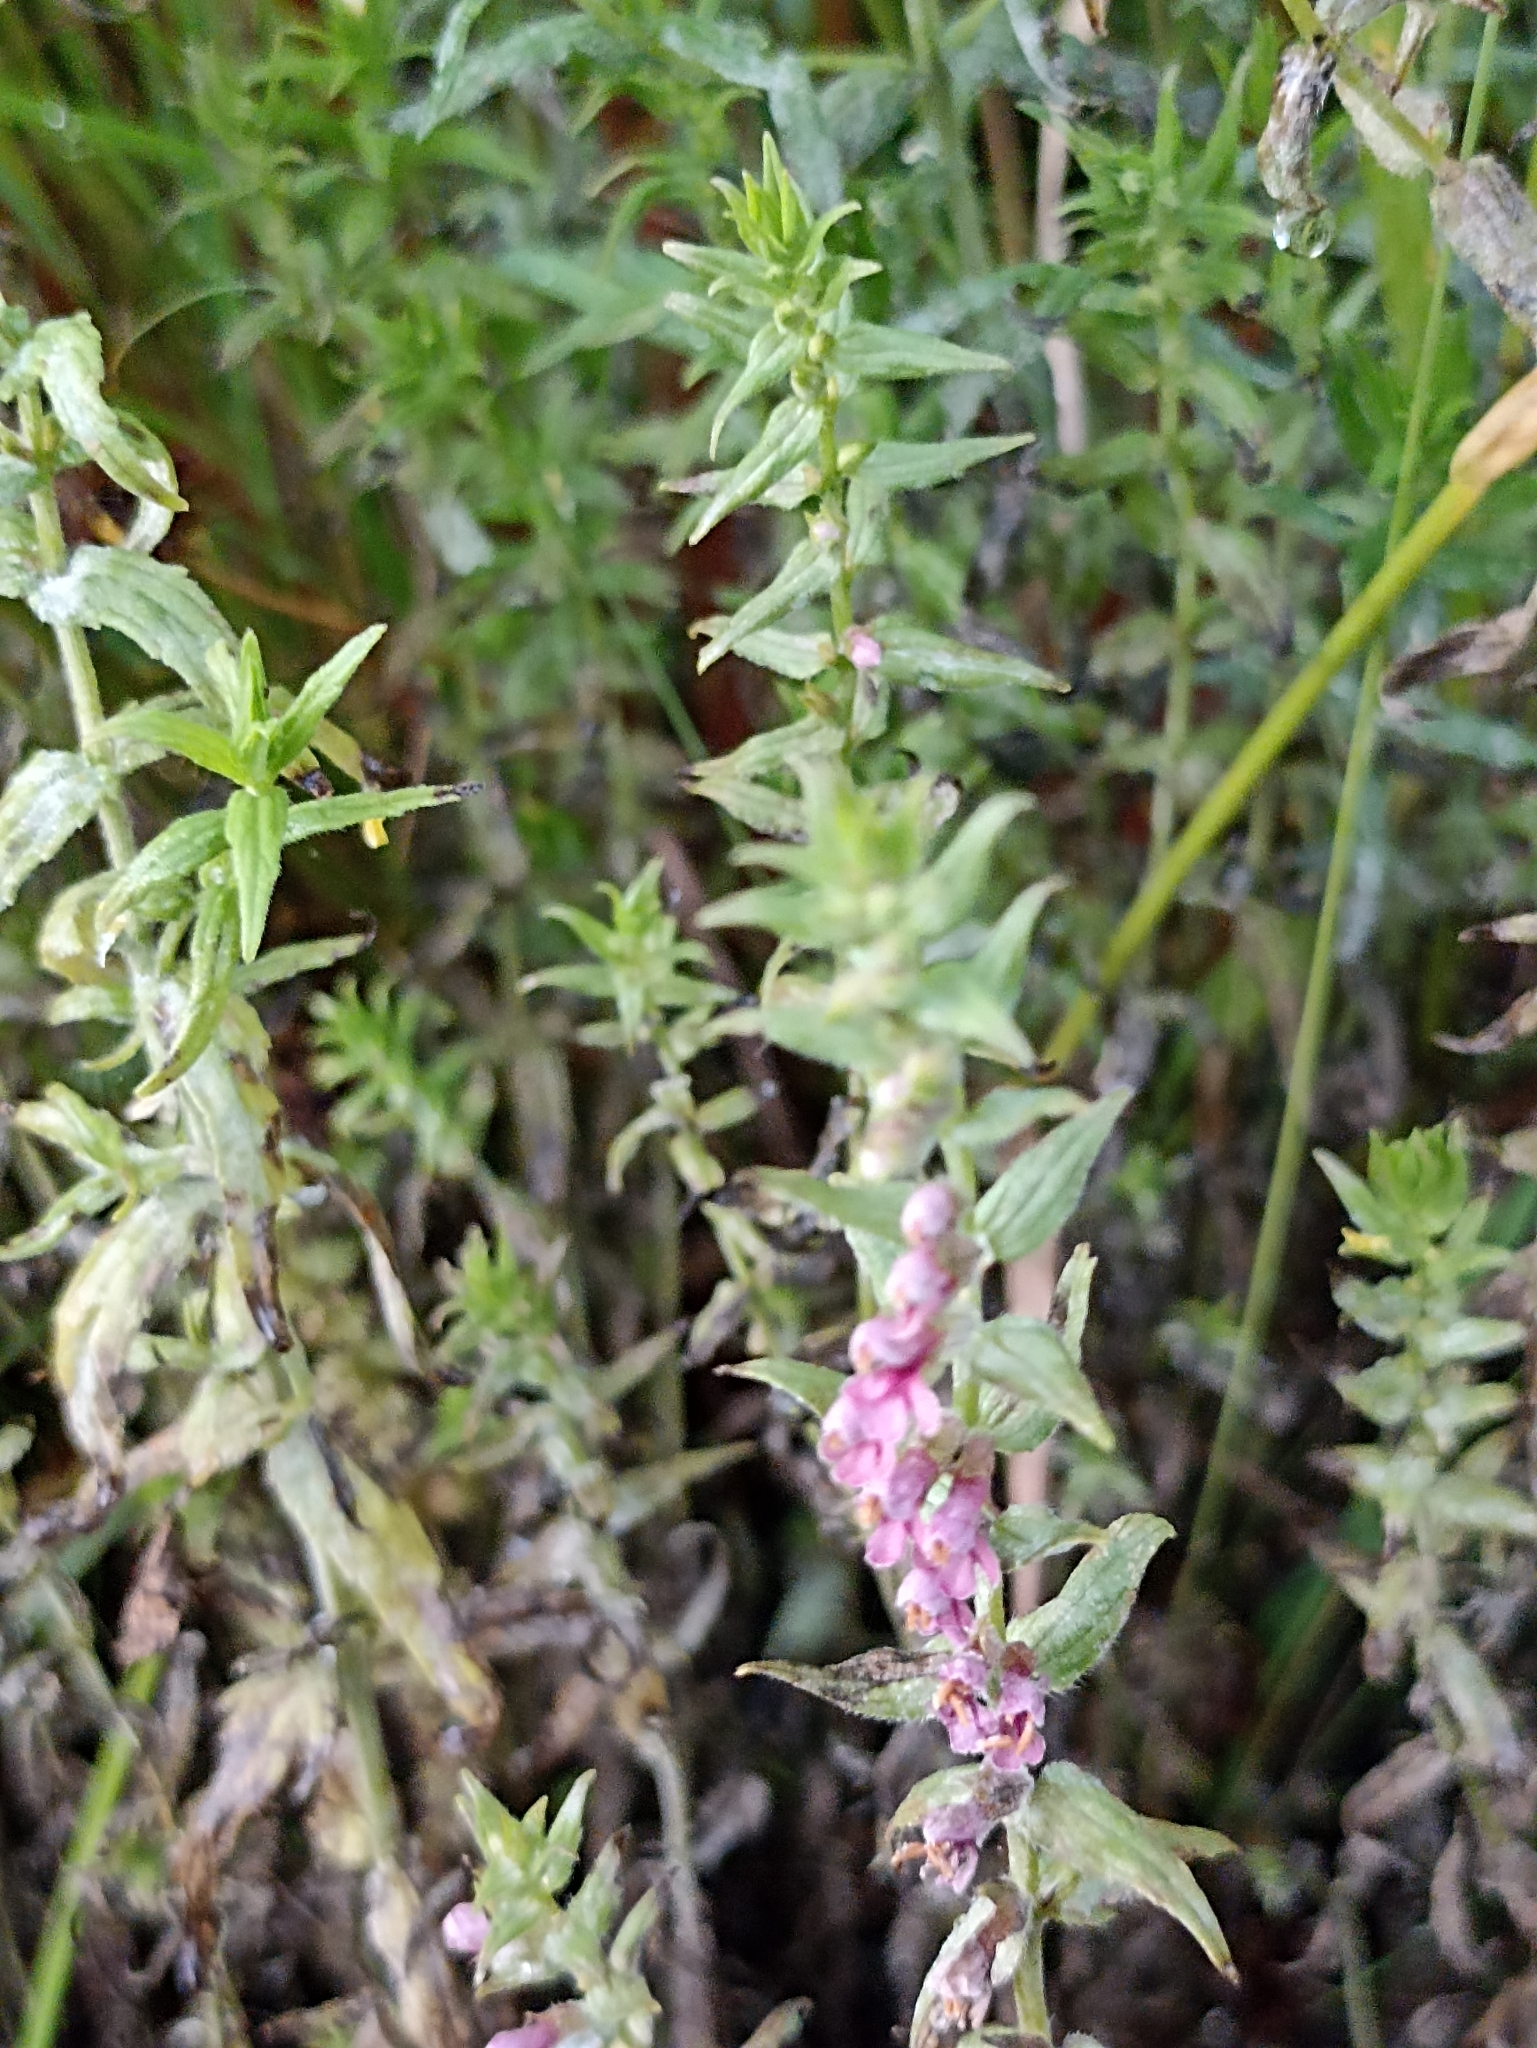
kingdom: Plantae
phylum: Tracheophyta
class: Magnoliopsida
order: Lamiales
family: Orobanchaceae
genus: Odontites
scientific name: Odontites vulgaris
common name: Broomrape
